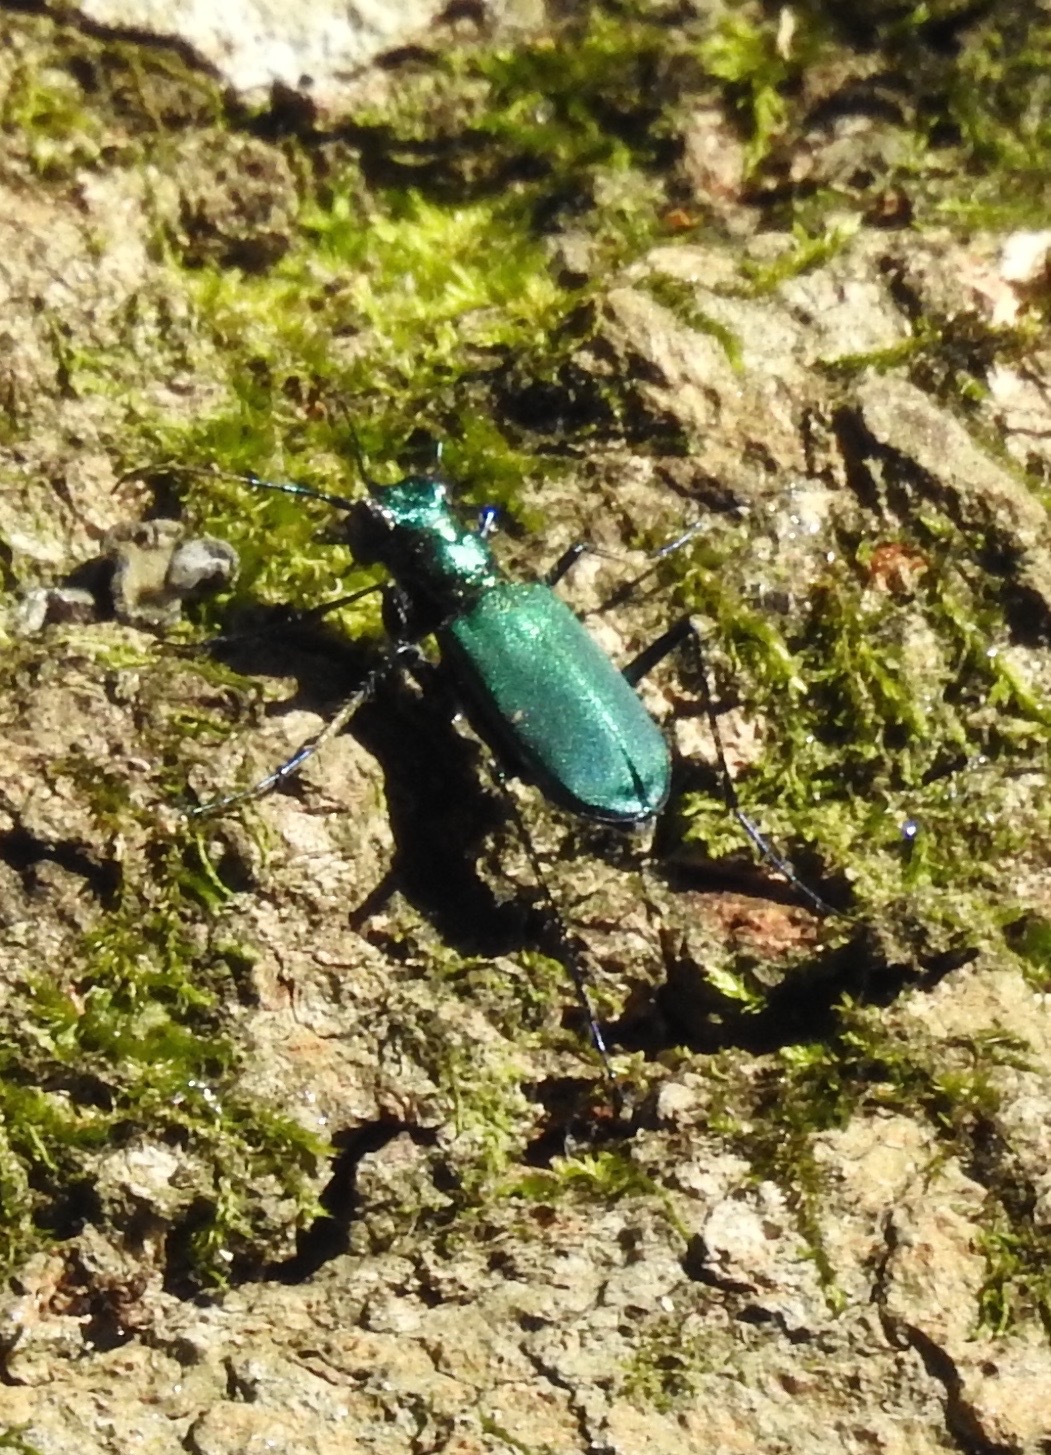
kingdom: Animalia
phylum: Arthropoda
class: Insecta
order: Coleoptera
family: Carabidae
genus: Cicindela
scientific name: Cicindela sexguttata
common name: Six-spotted tiger beetle
